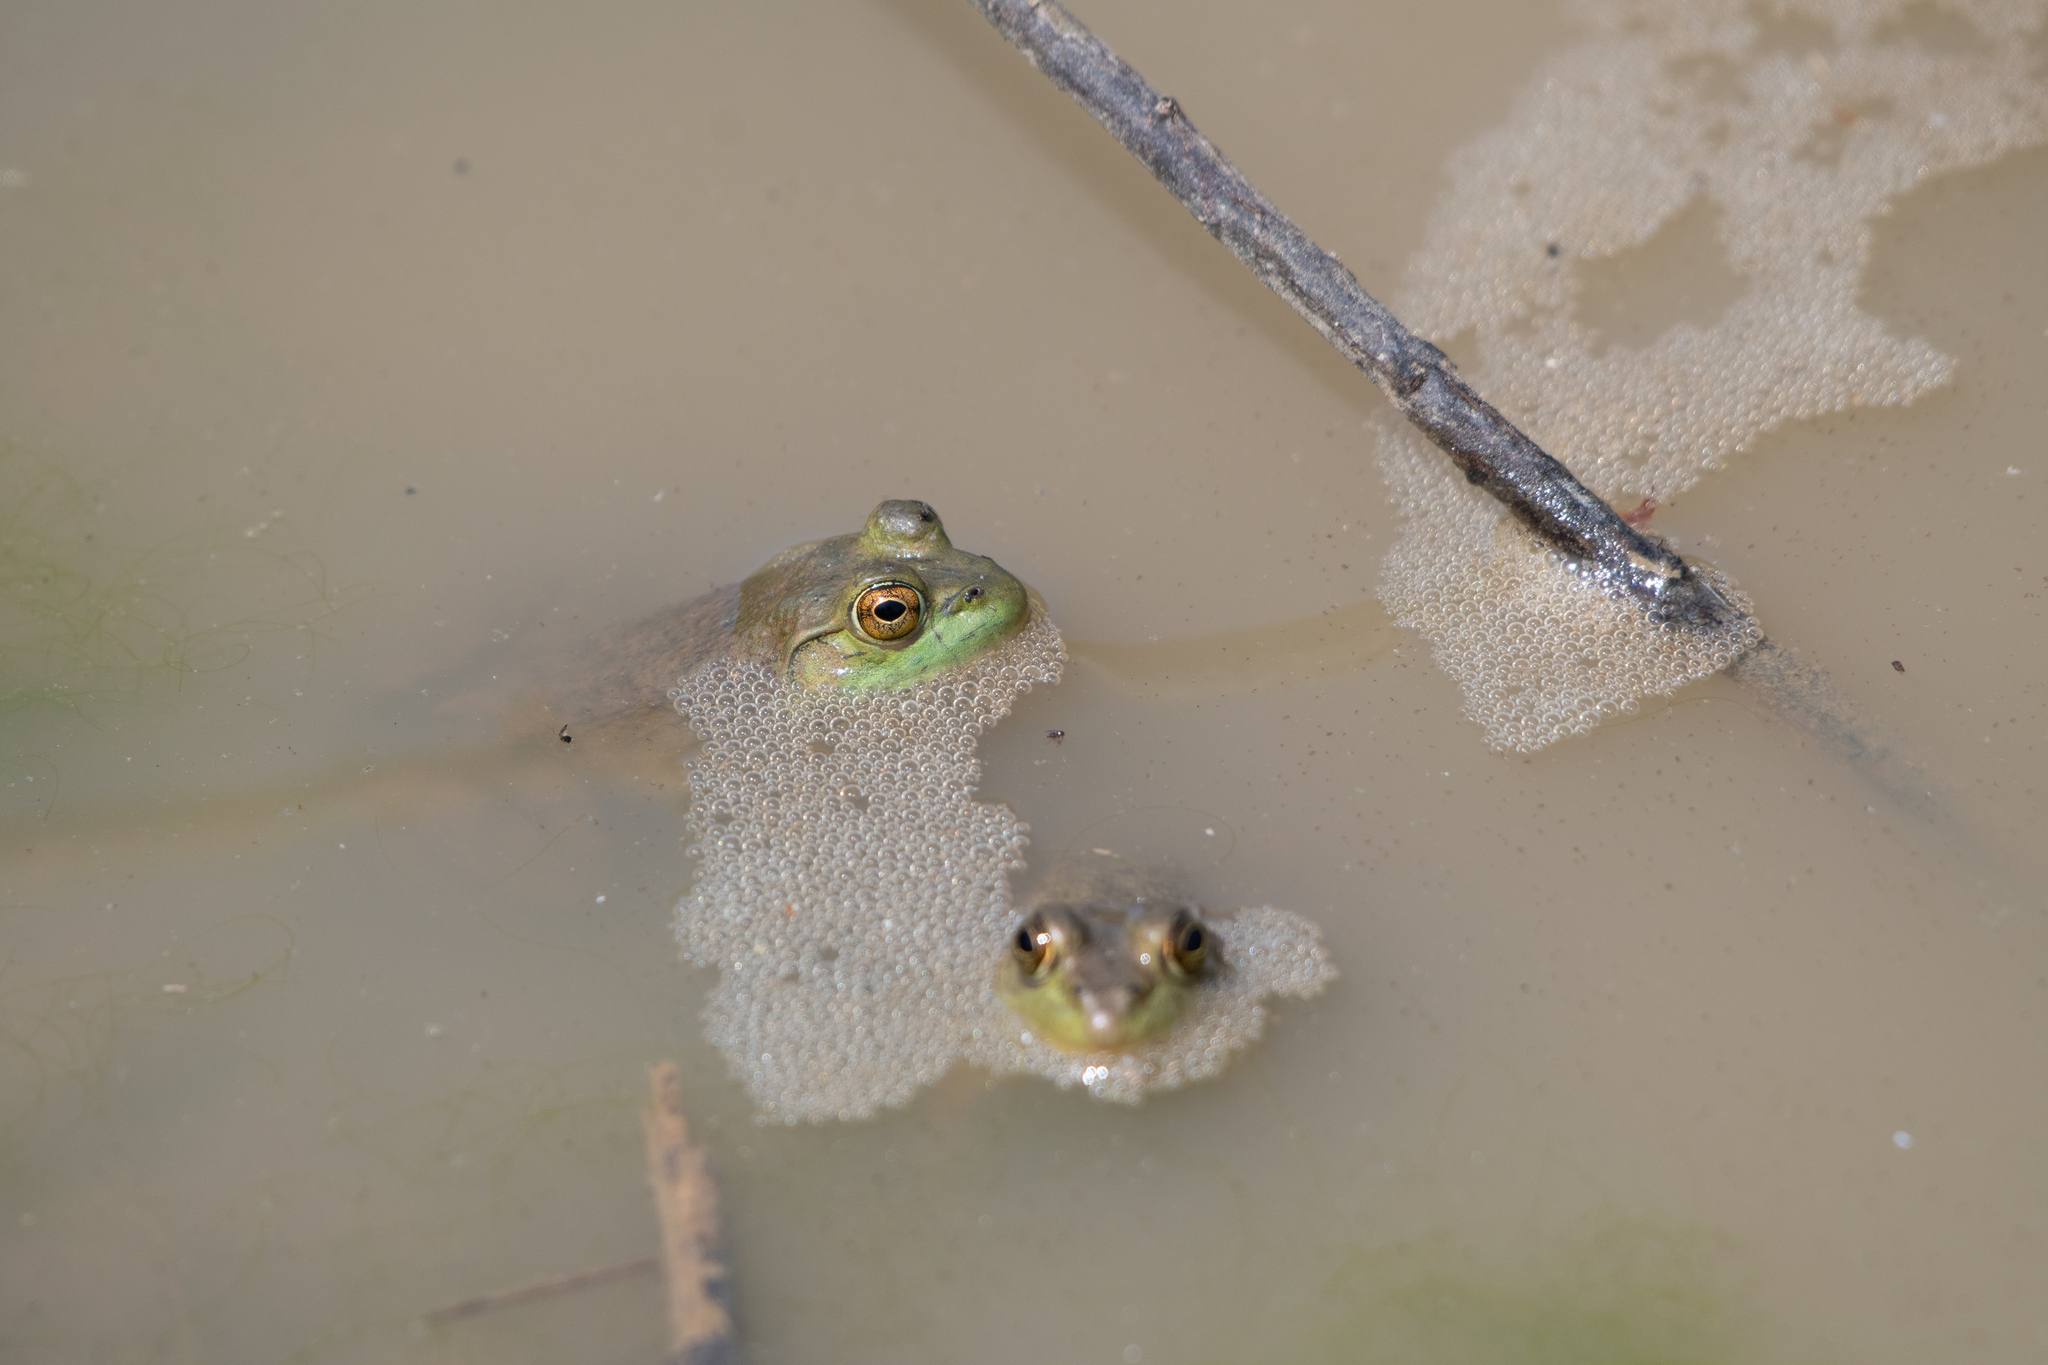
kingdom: Animalia
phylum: Chordata
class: Amphibia
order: Anura
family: Ranidae
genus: Lithobates
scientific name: Lithobates catesbeianus
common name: American bullfrog
